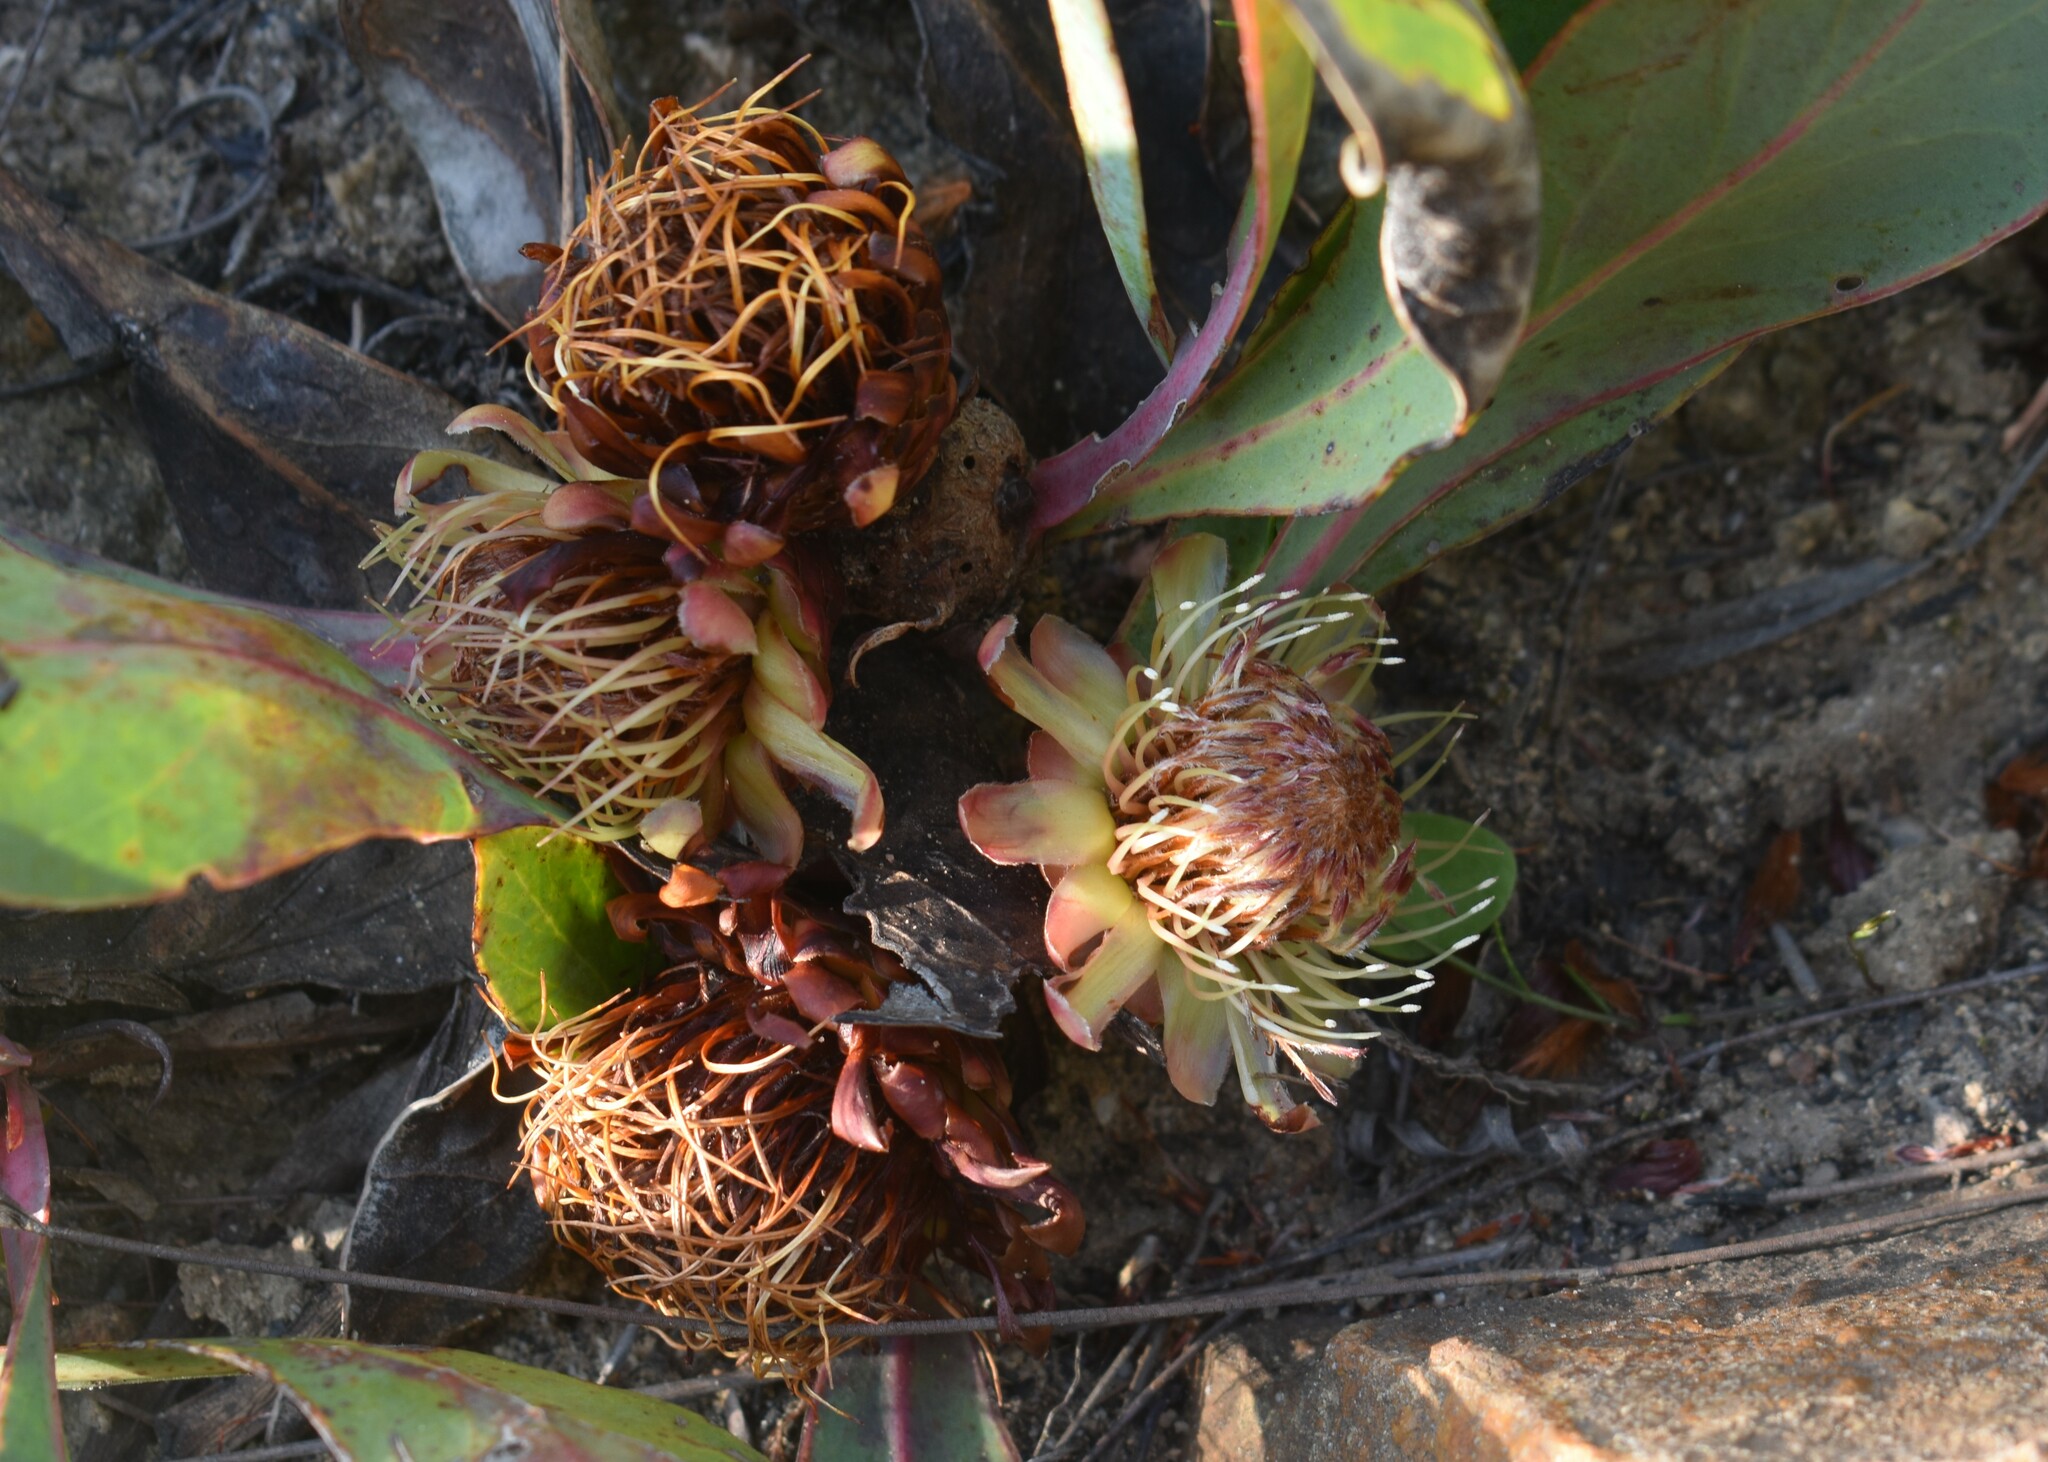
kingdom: Plantae
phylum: Tracheophyta
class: Magnoliopsida
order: Proteales
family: Proteaceae
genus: Protea
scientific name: Protea acaulos
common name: Common ground sugarbush
